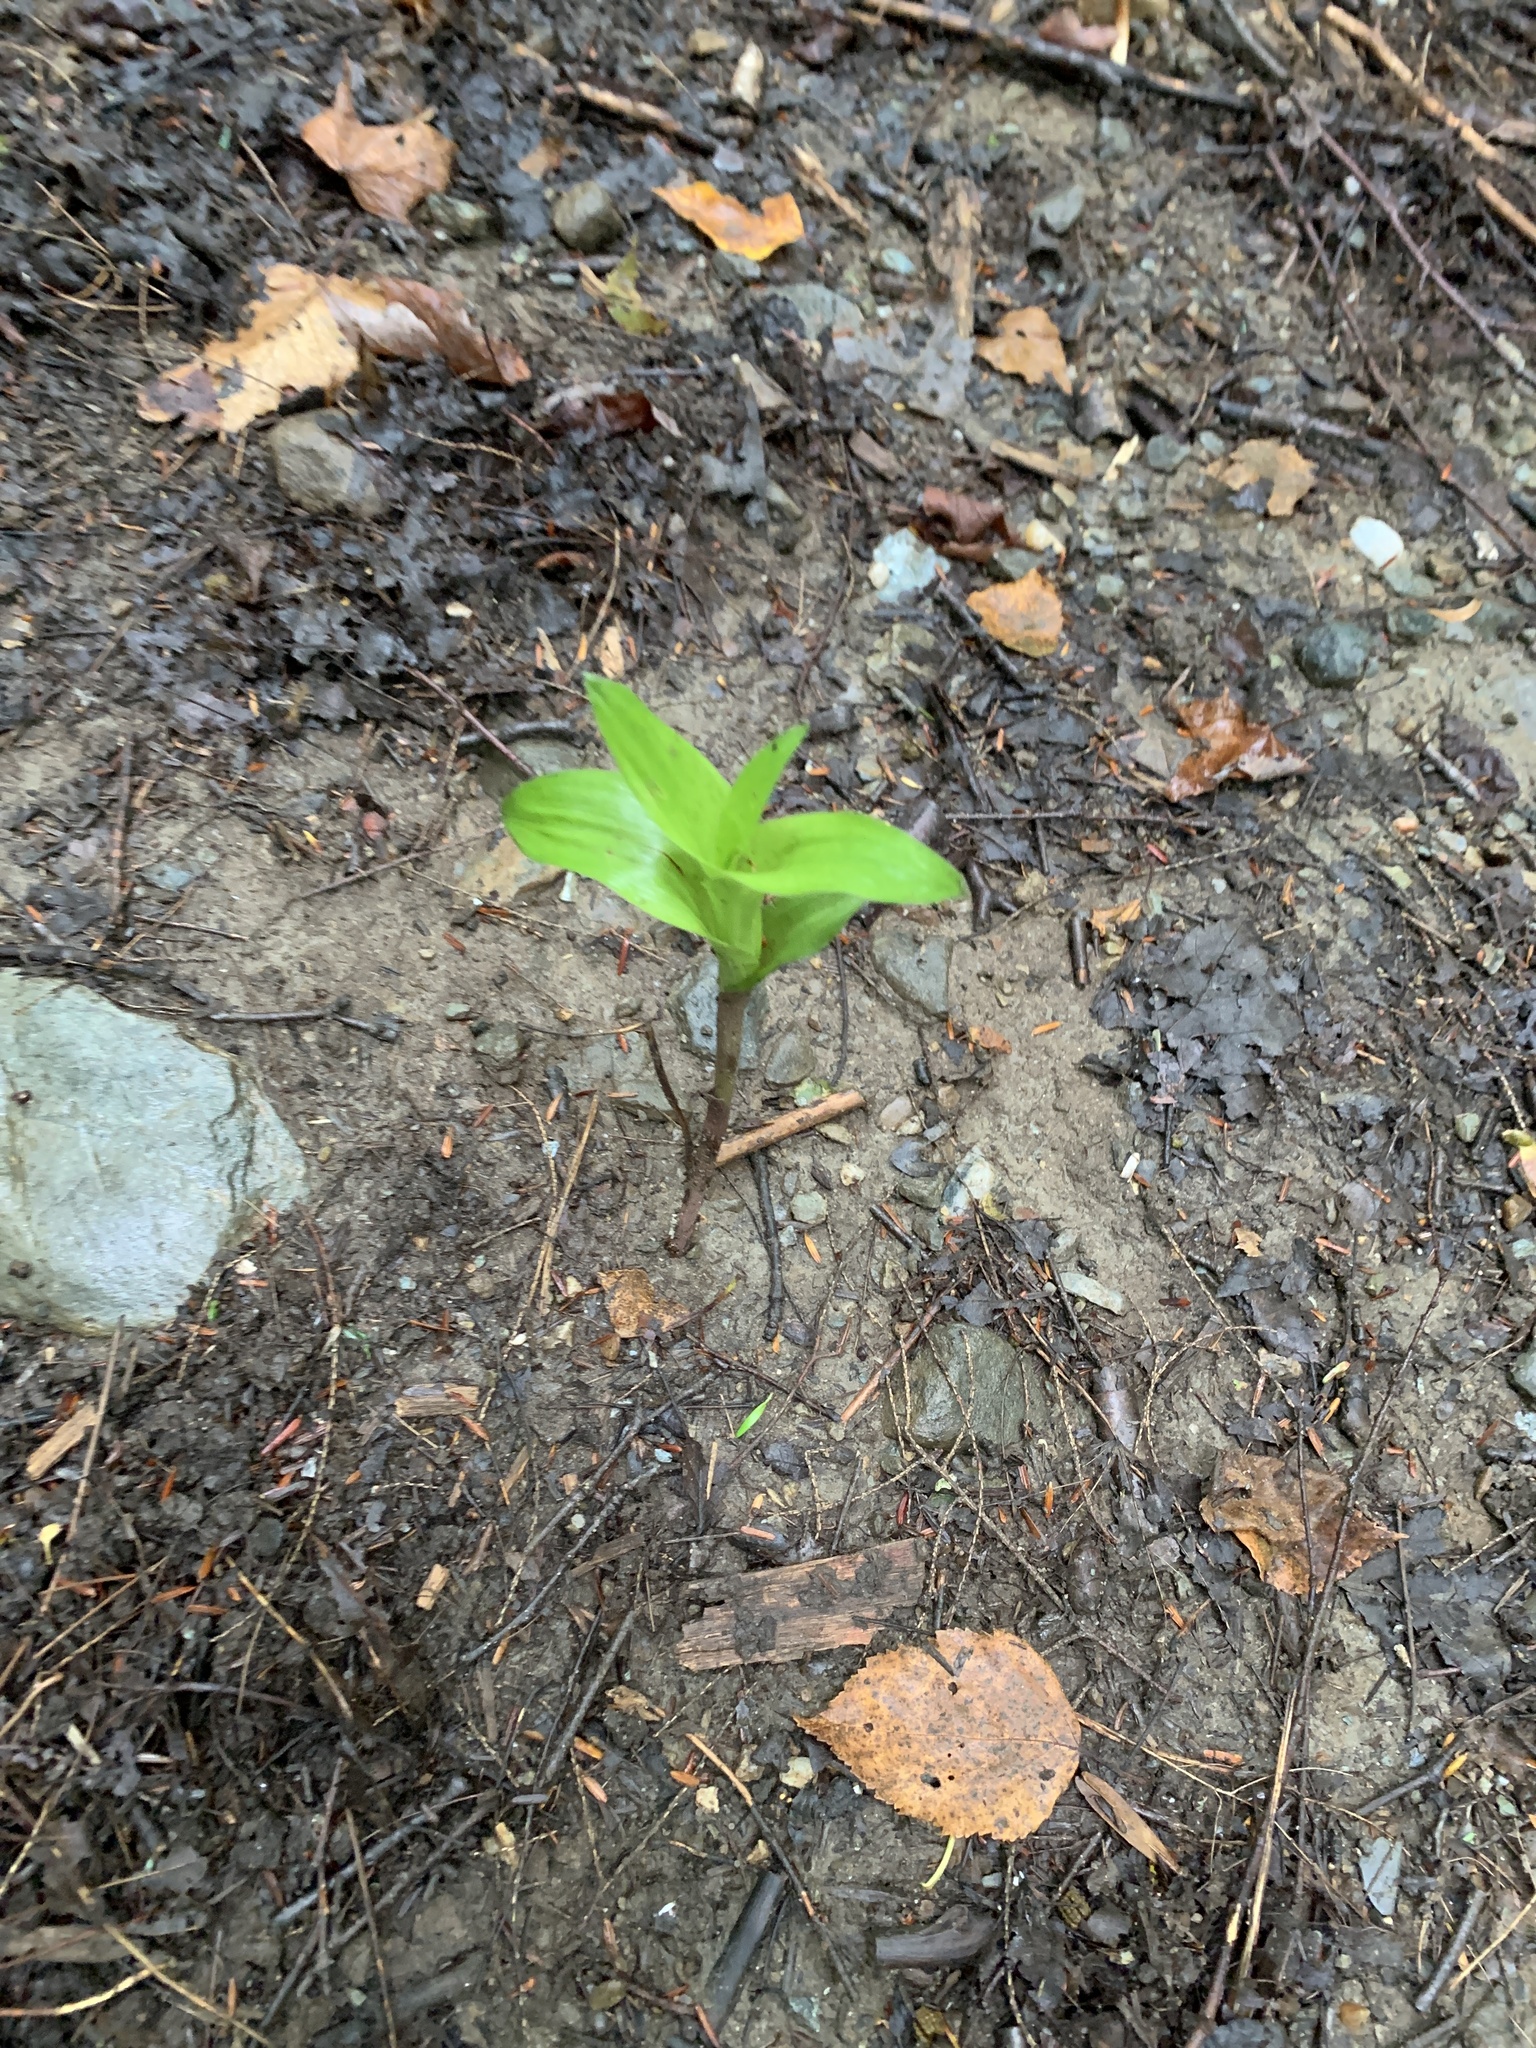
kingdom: Plantae
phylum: Tracheophyta
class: Liliopsida
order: Asparagales
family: Orchidaceae
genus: Epipactis
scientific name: Epipactis helleborine
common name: Broad-leaved helleborine
